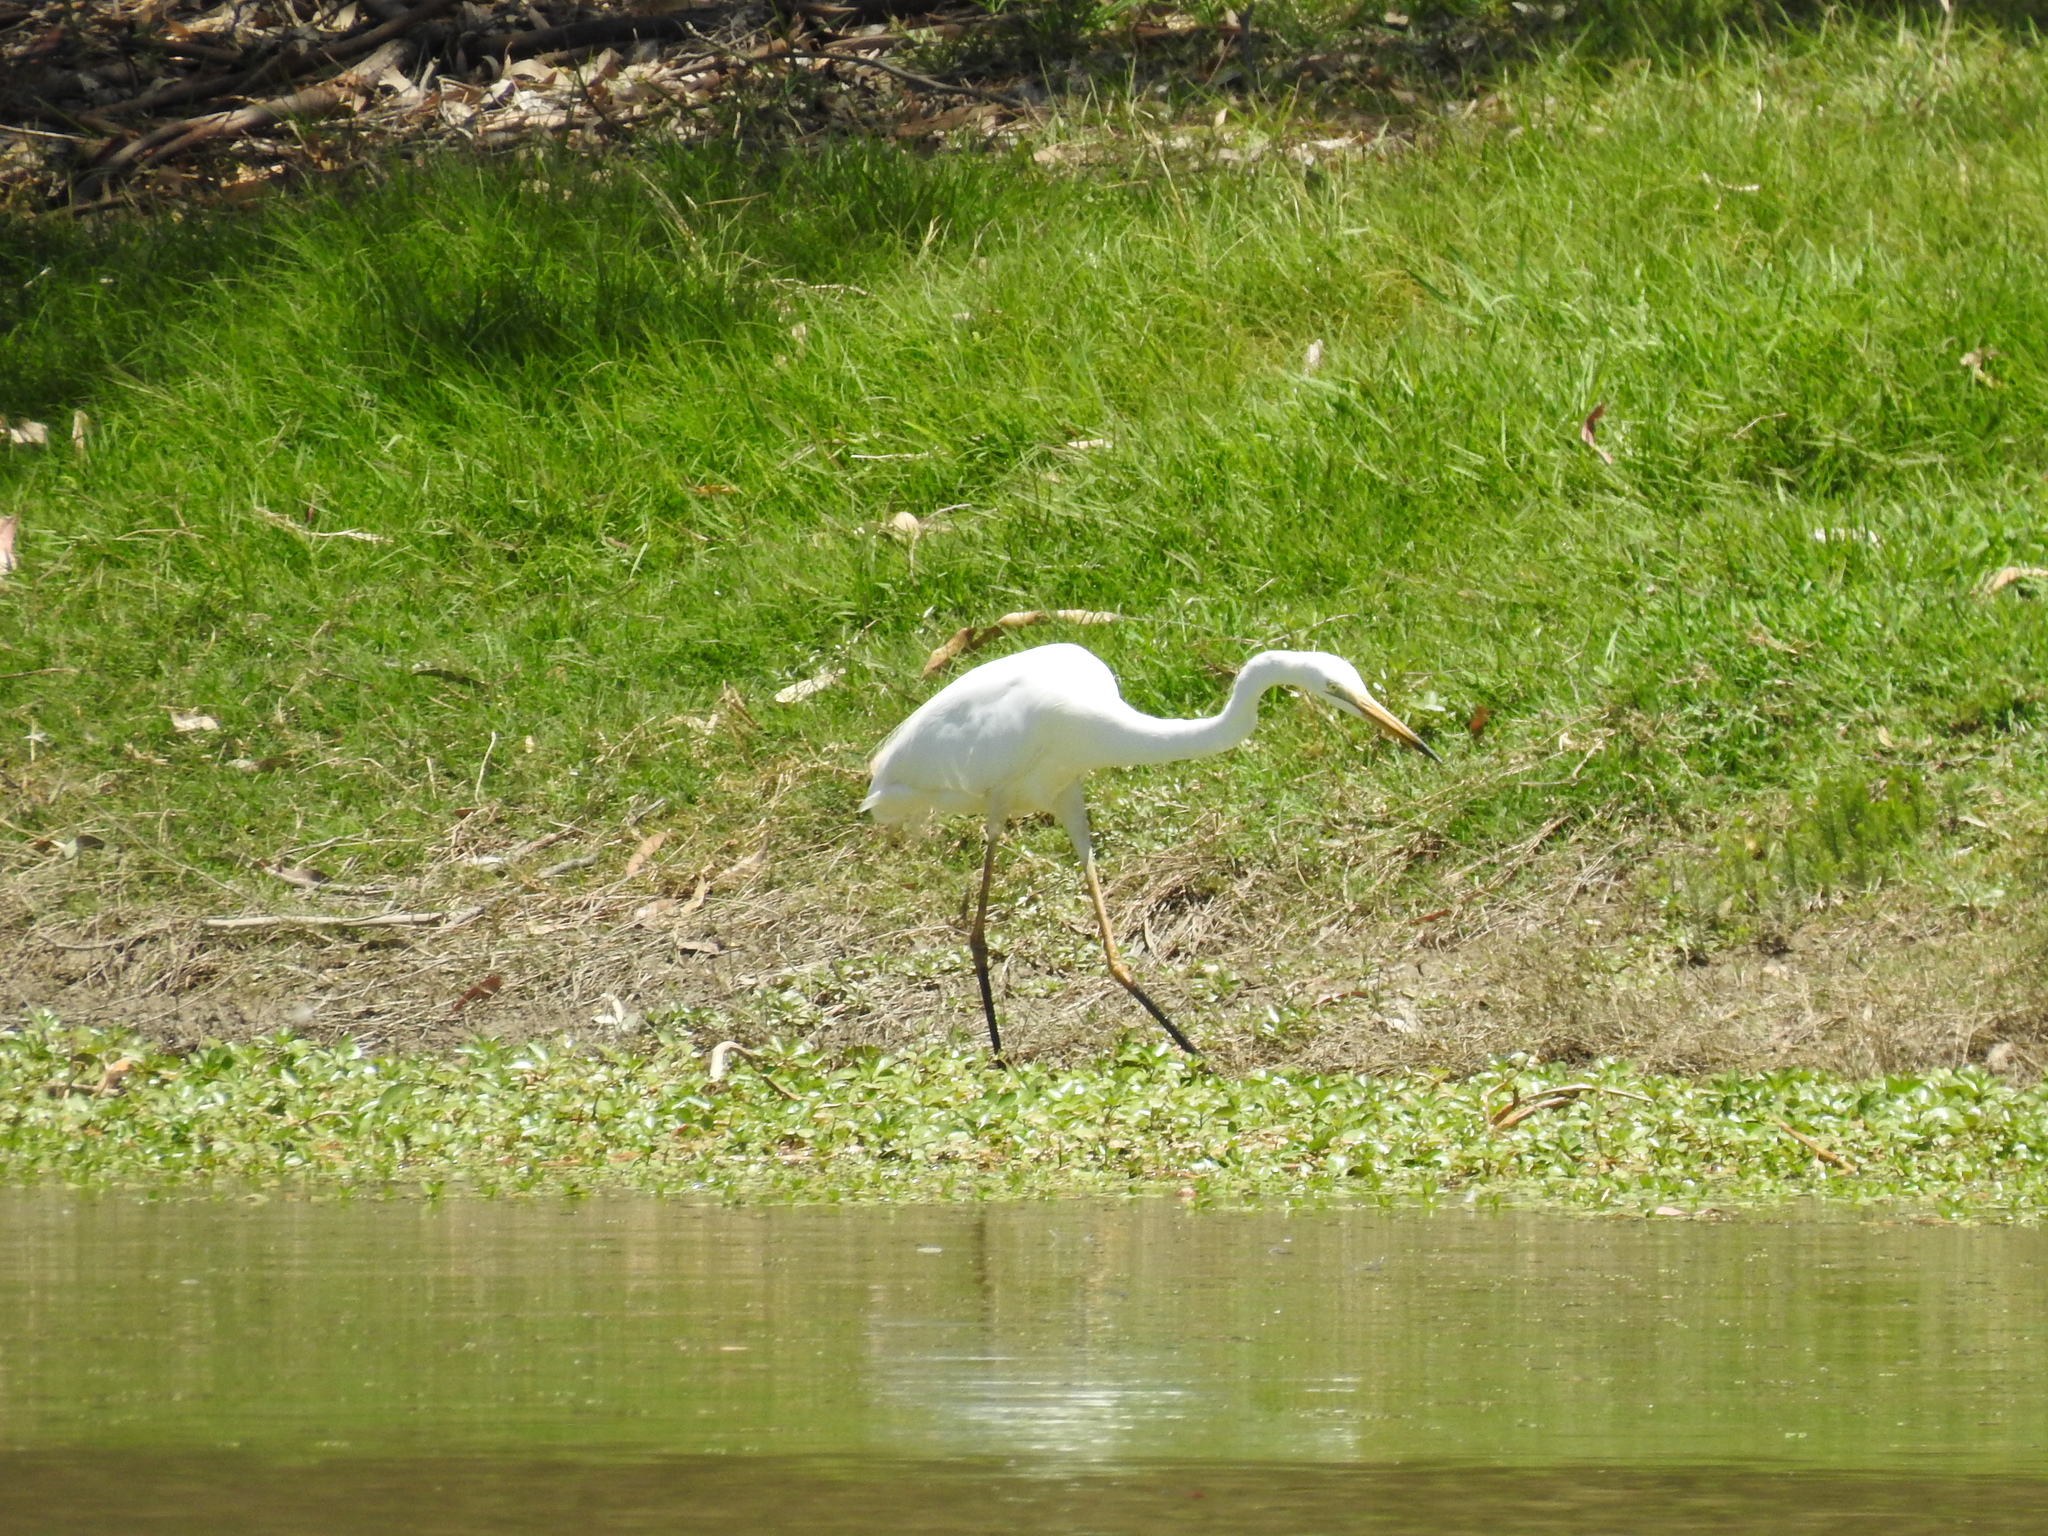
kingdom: Animalia
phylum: Chordata
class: Aves
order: Pelecaniformes
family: Ardeidae
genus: Ardea
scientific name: Ardea alba
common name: Great egret
